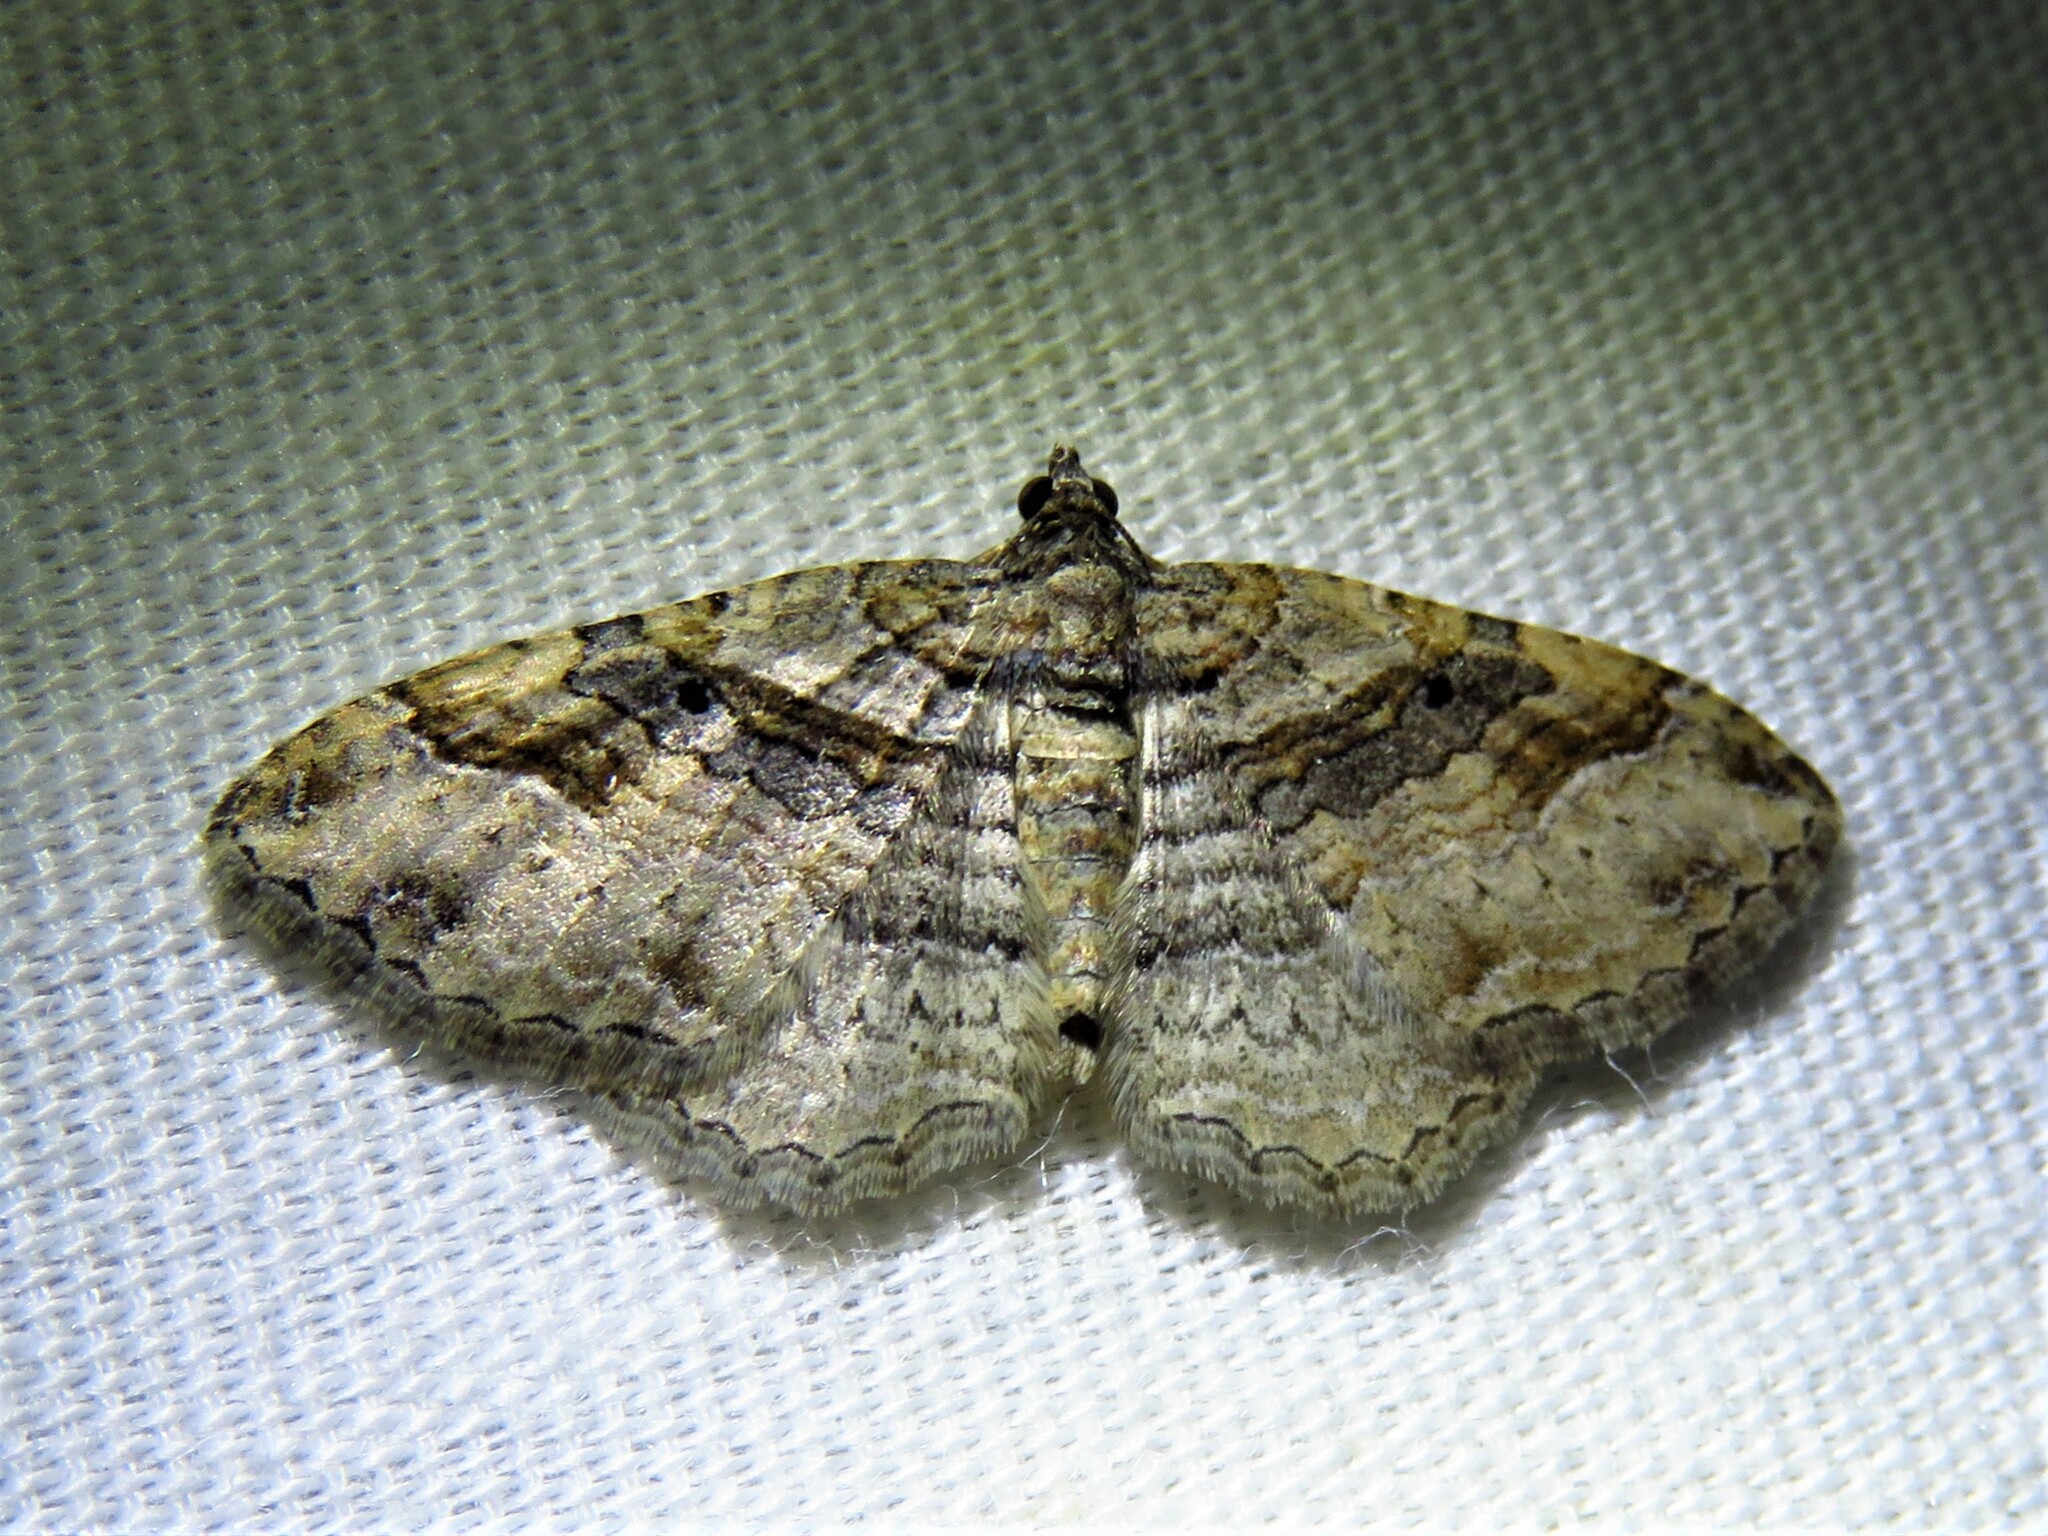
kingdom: Animalia
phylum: Arthropoda
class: Insecta
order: Lepidoptera
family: Geometridae
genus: Costaconvexa
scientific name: Costaconvexa centrostrigaria
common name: Bent-line carpet
